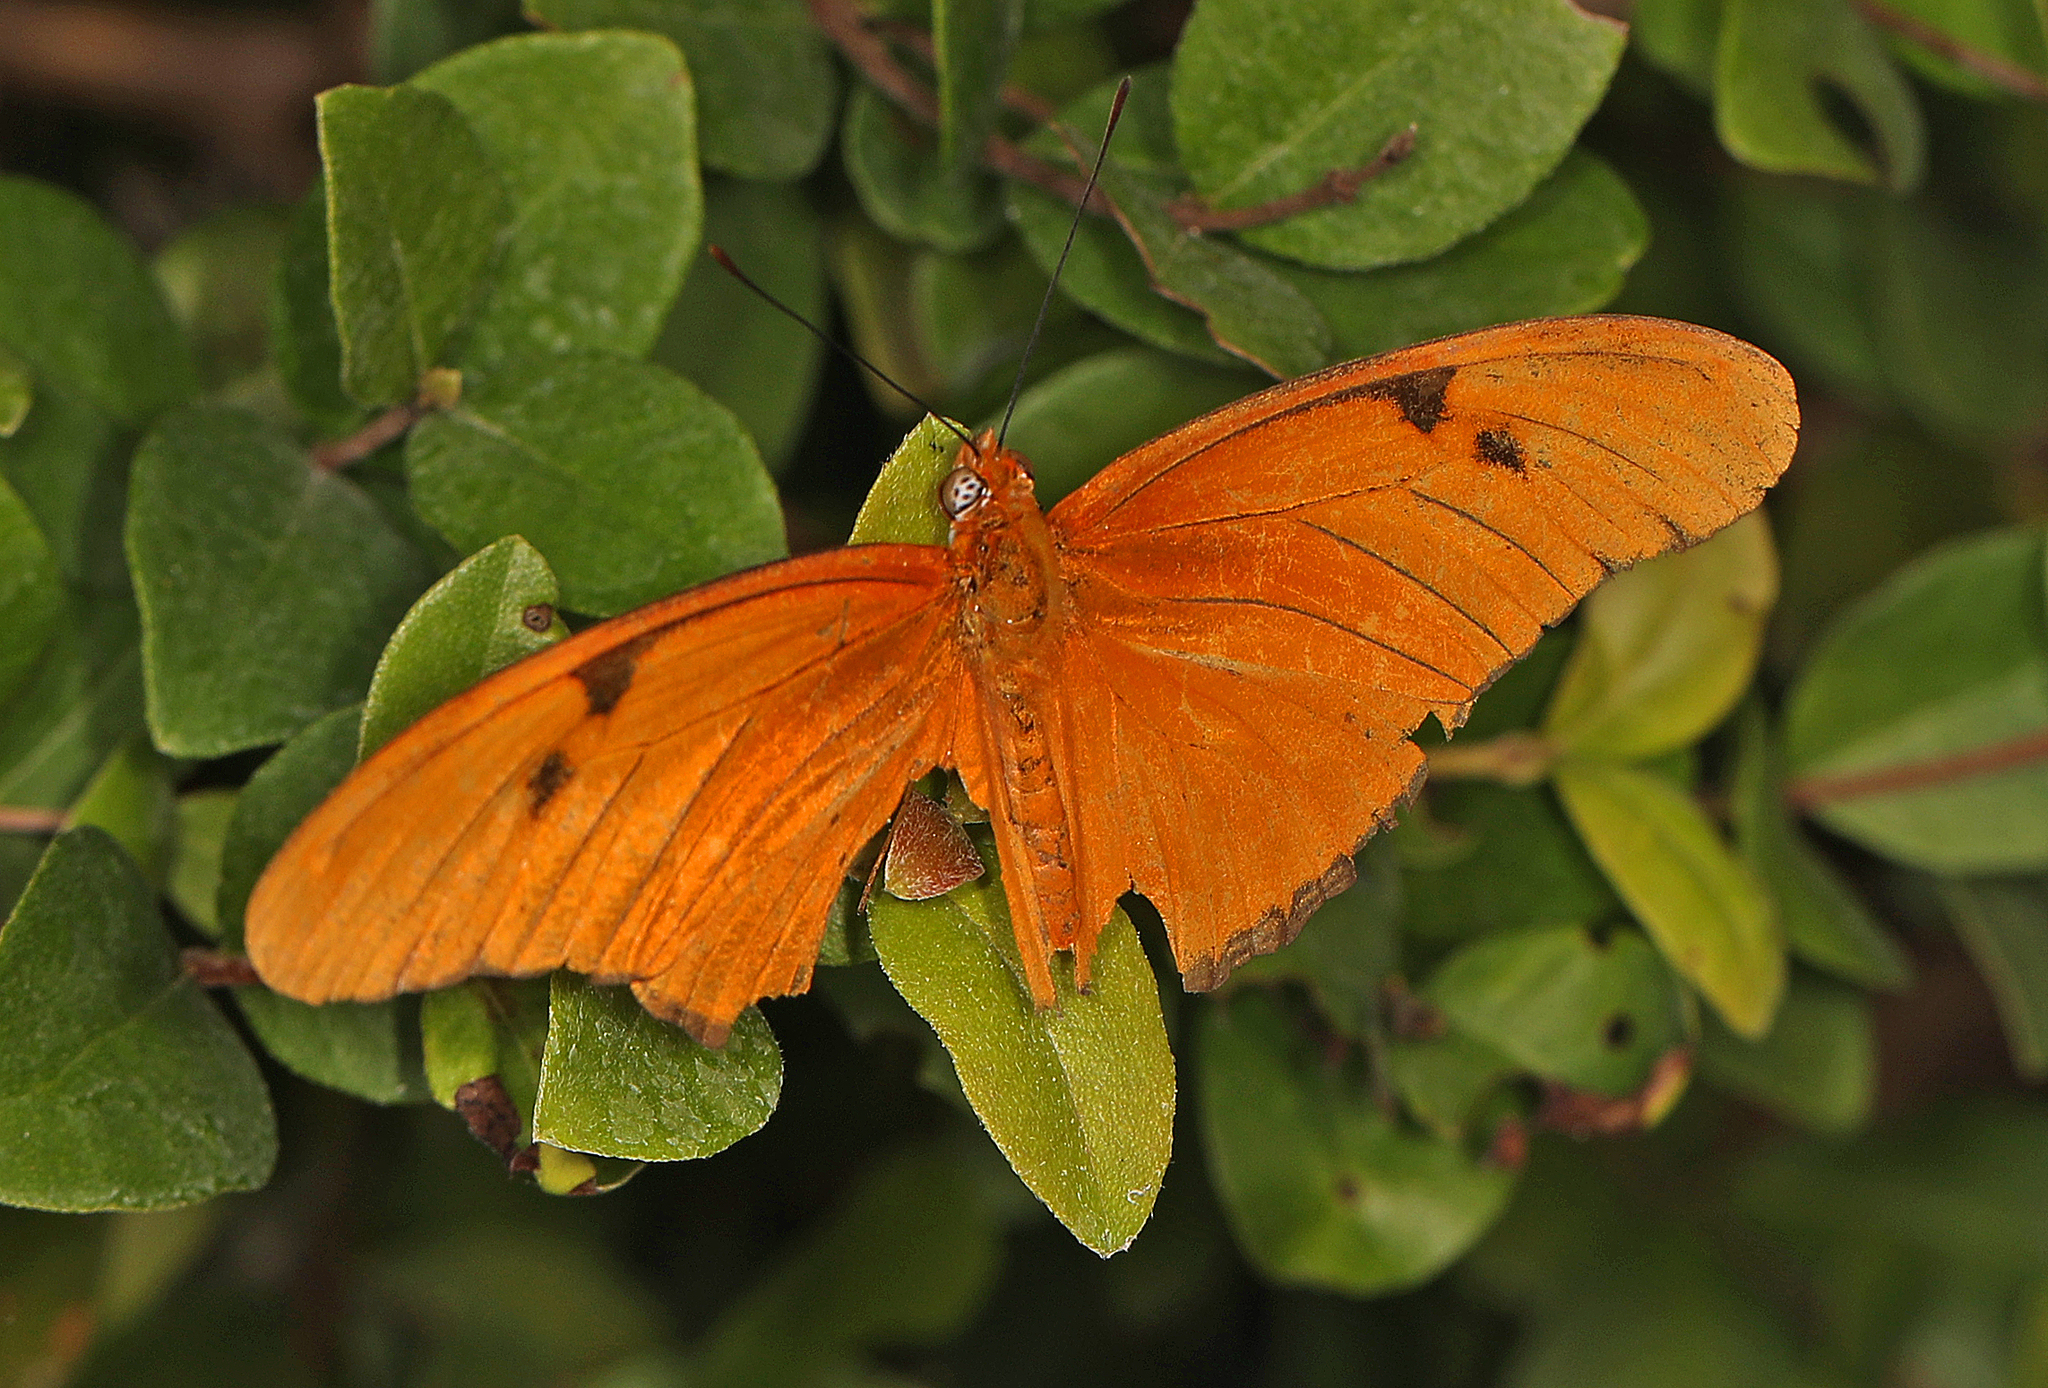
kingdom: Animalia
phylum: Arthropoda
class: Insecta
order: Lepidoptera
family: Nymphalidae
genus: Dryas
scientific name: Dryas iulia
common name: Flambeau
